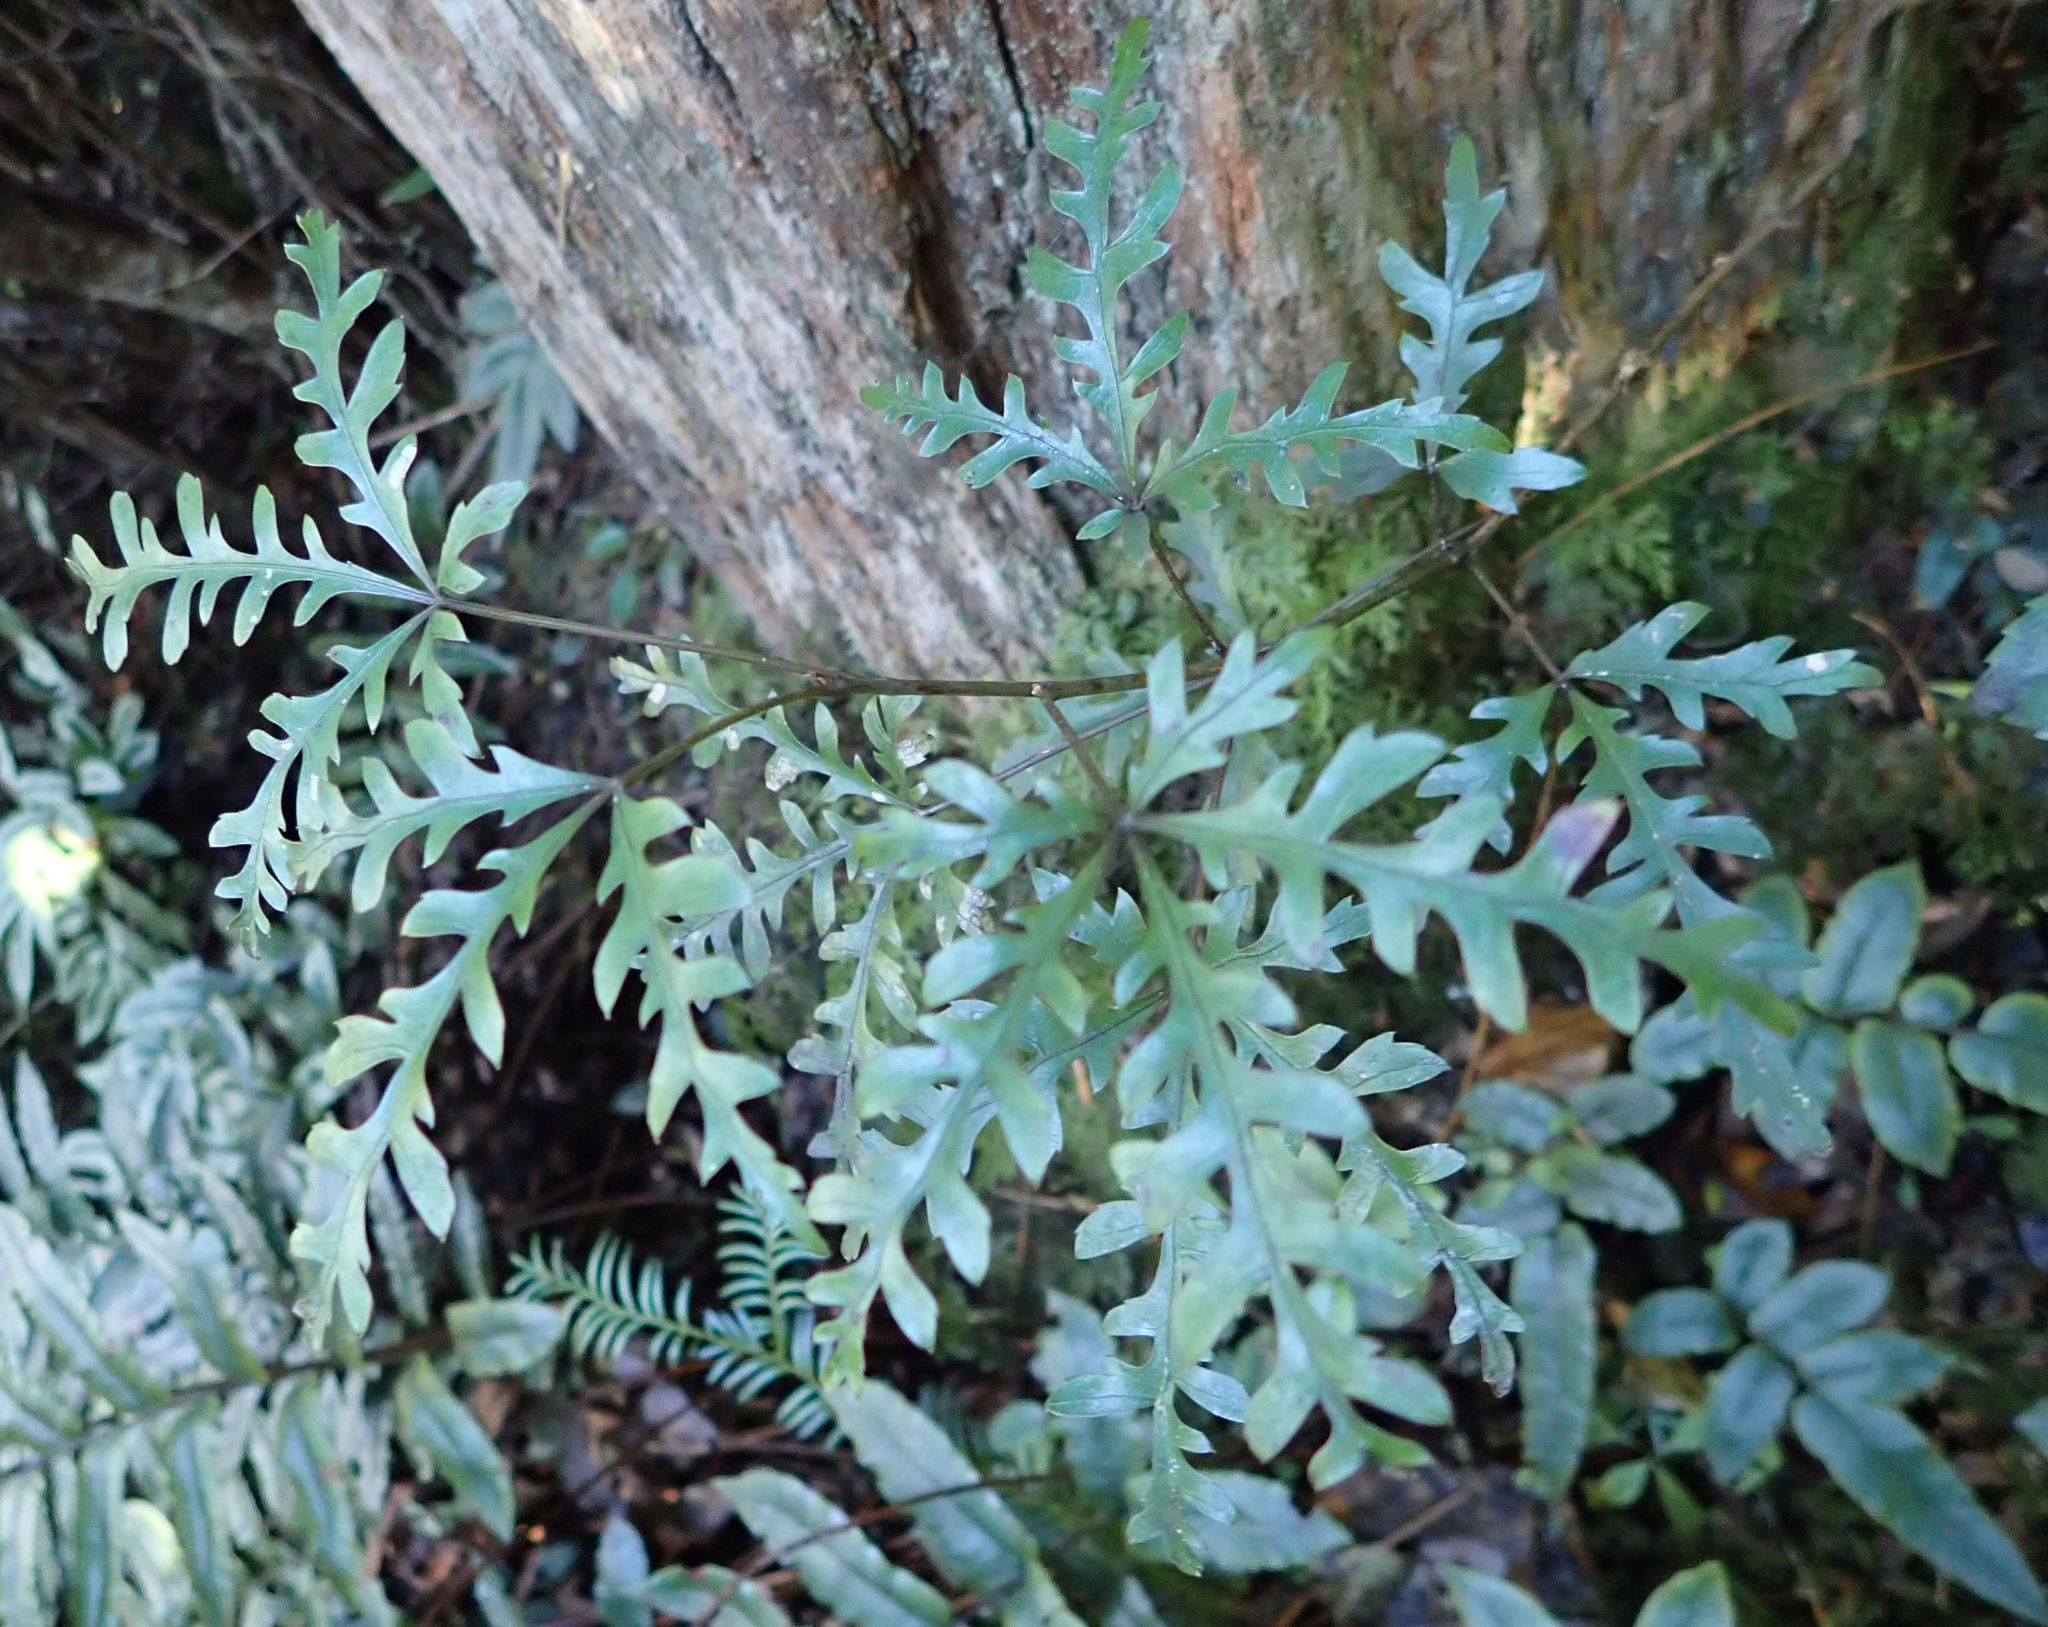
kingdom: Plantae
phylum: Tracheophyta
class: Magnoliopsida
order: Apiales
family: Araliaceae
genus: Raukaua
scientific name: Raukaua simplex
